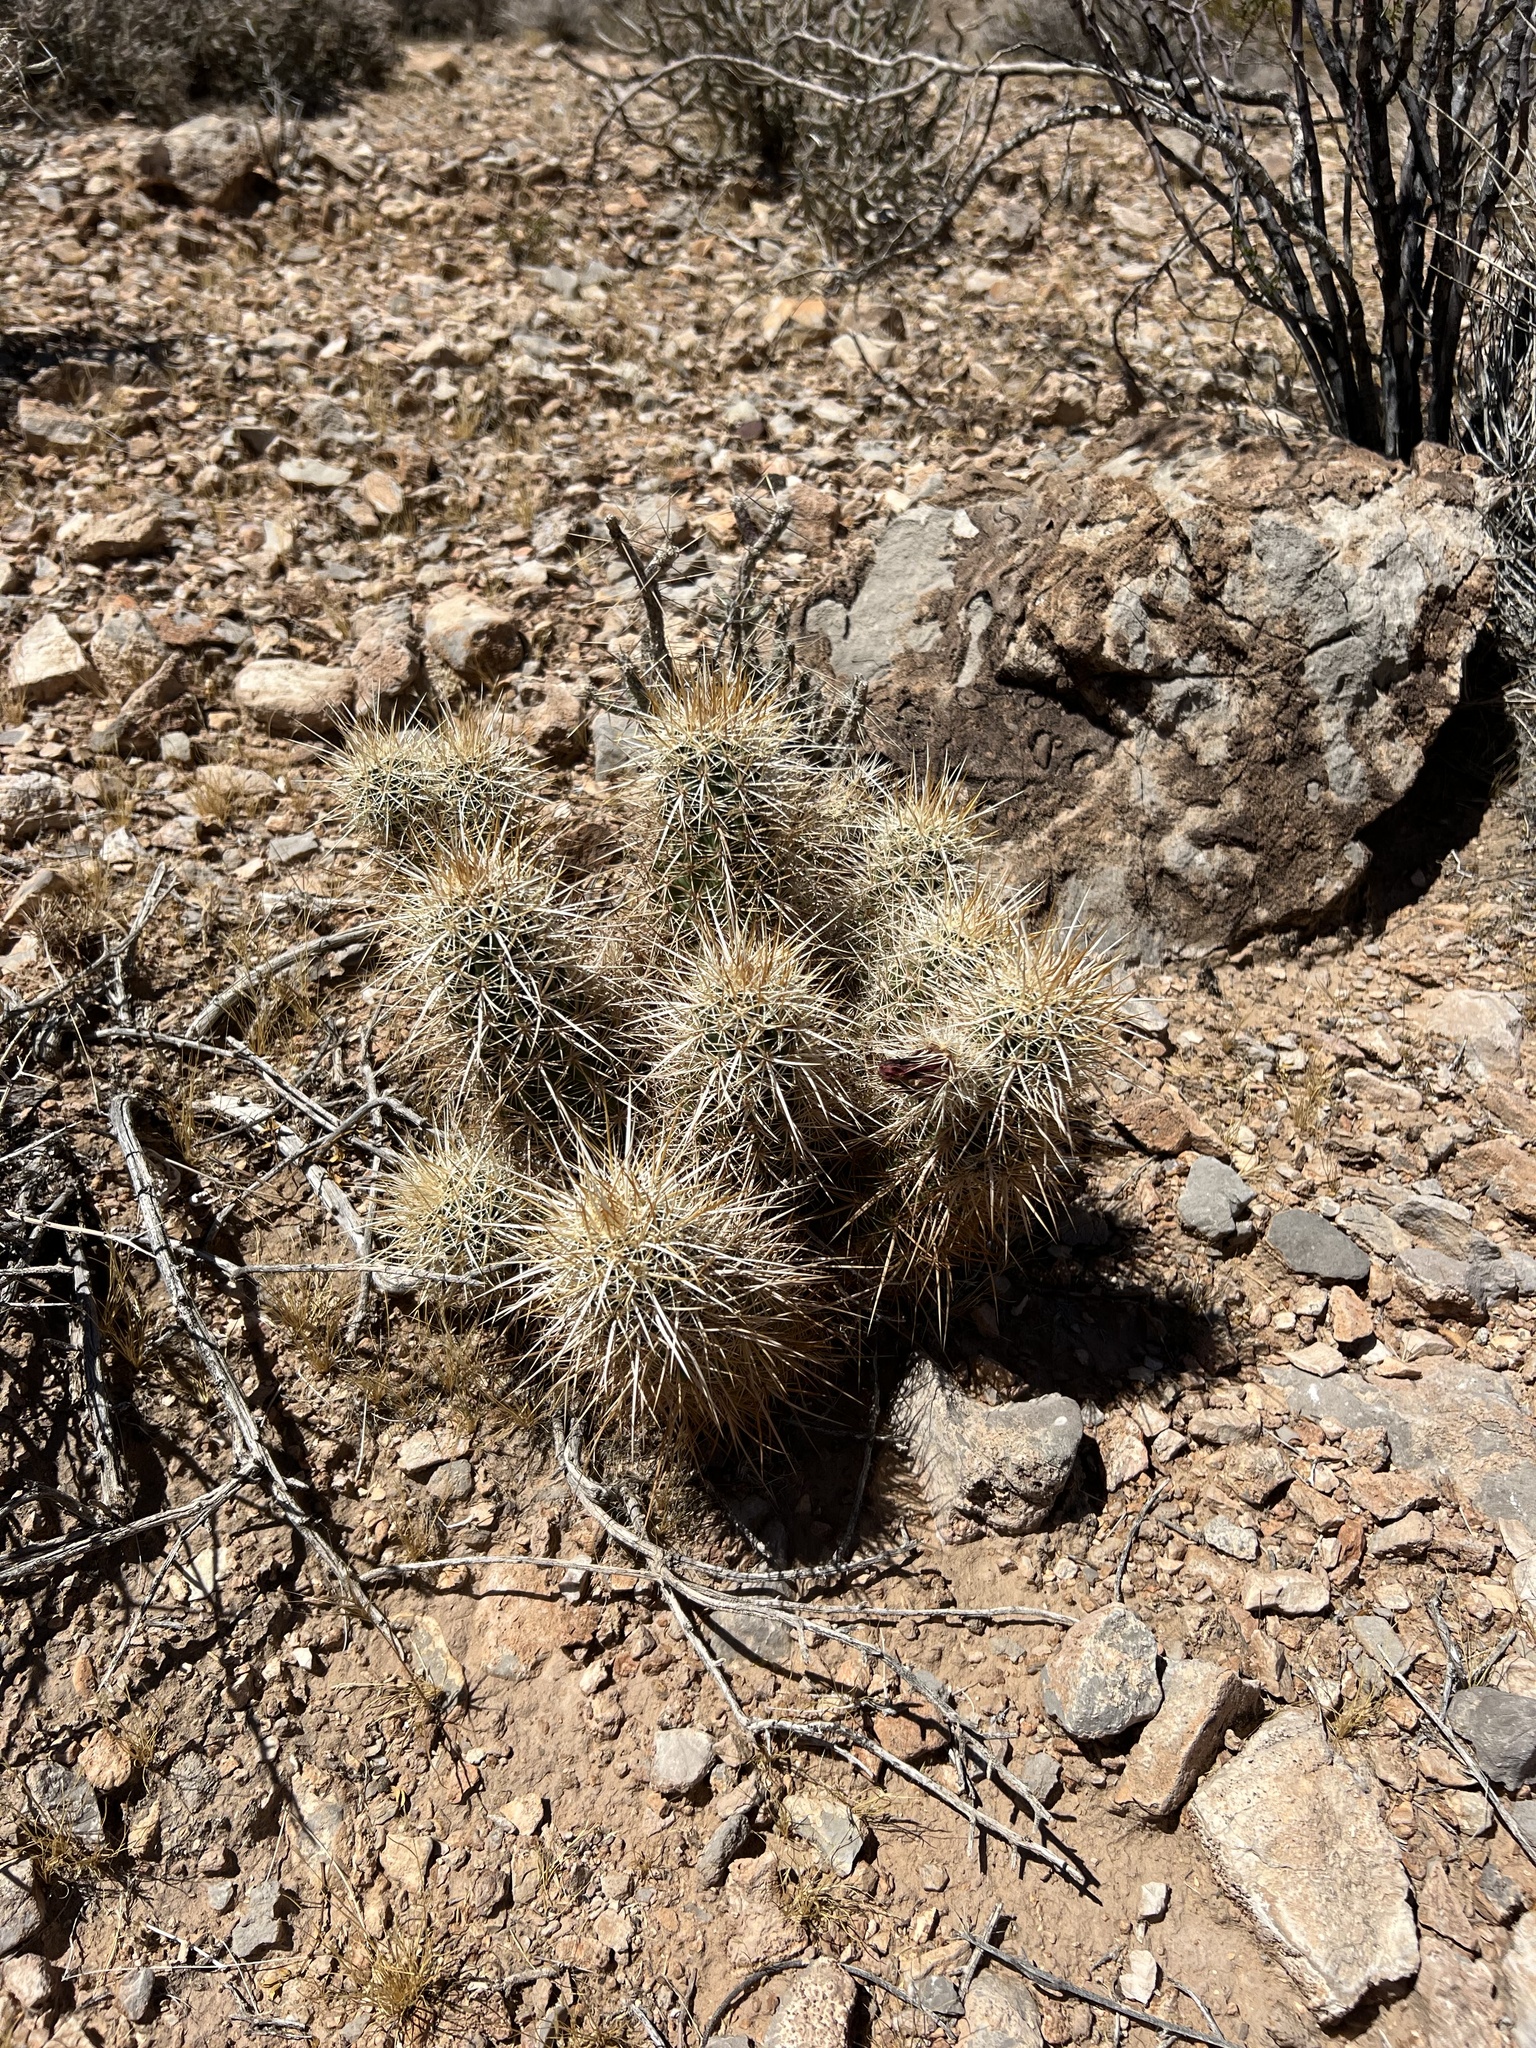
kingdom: Plantae
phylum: Tracheophyta
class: Magnoliopsida
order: Caryophyllales
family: Cactaceae
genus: Echinocereus
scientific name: Echinocereus engelmannii
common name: Engelmann's hedgehog cactus
